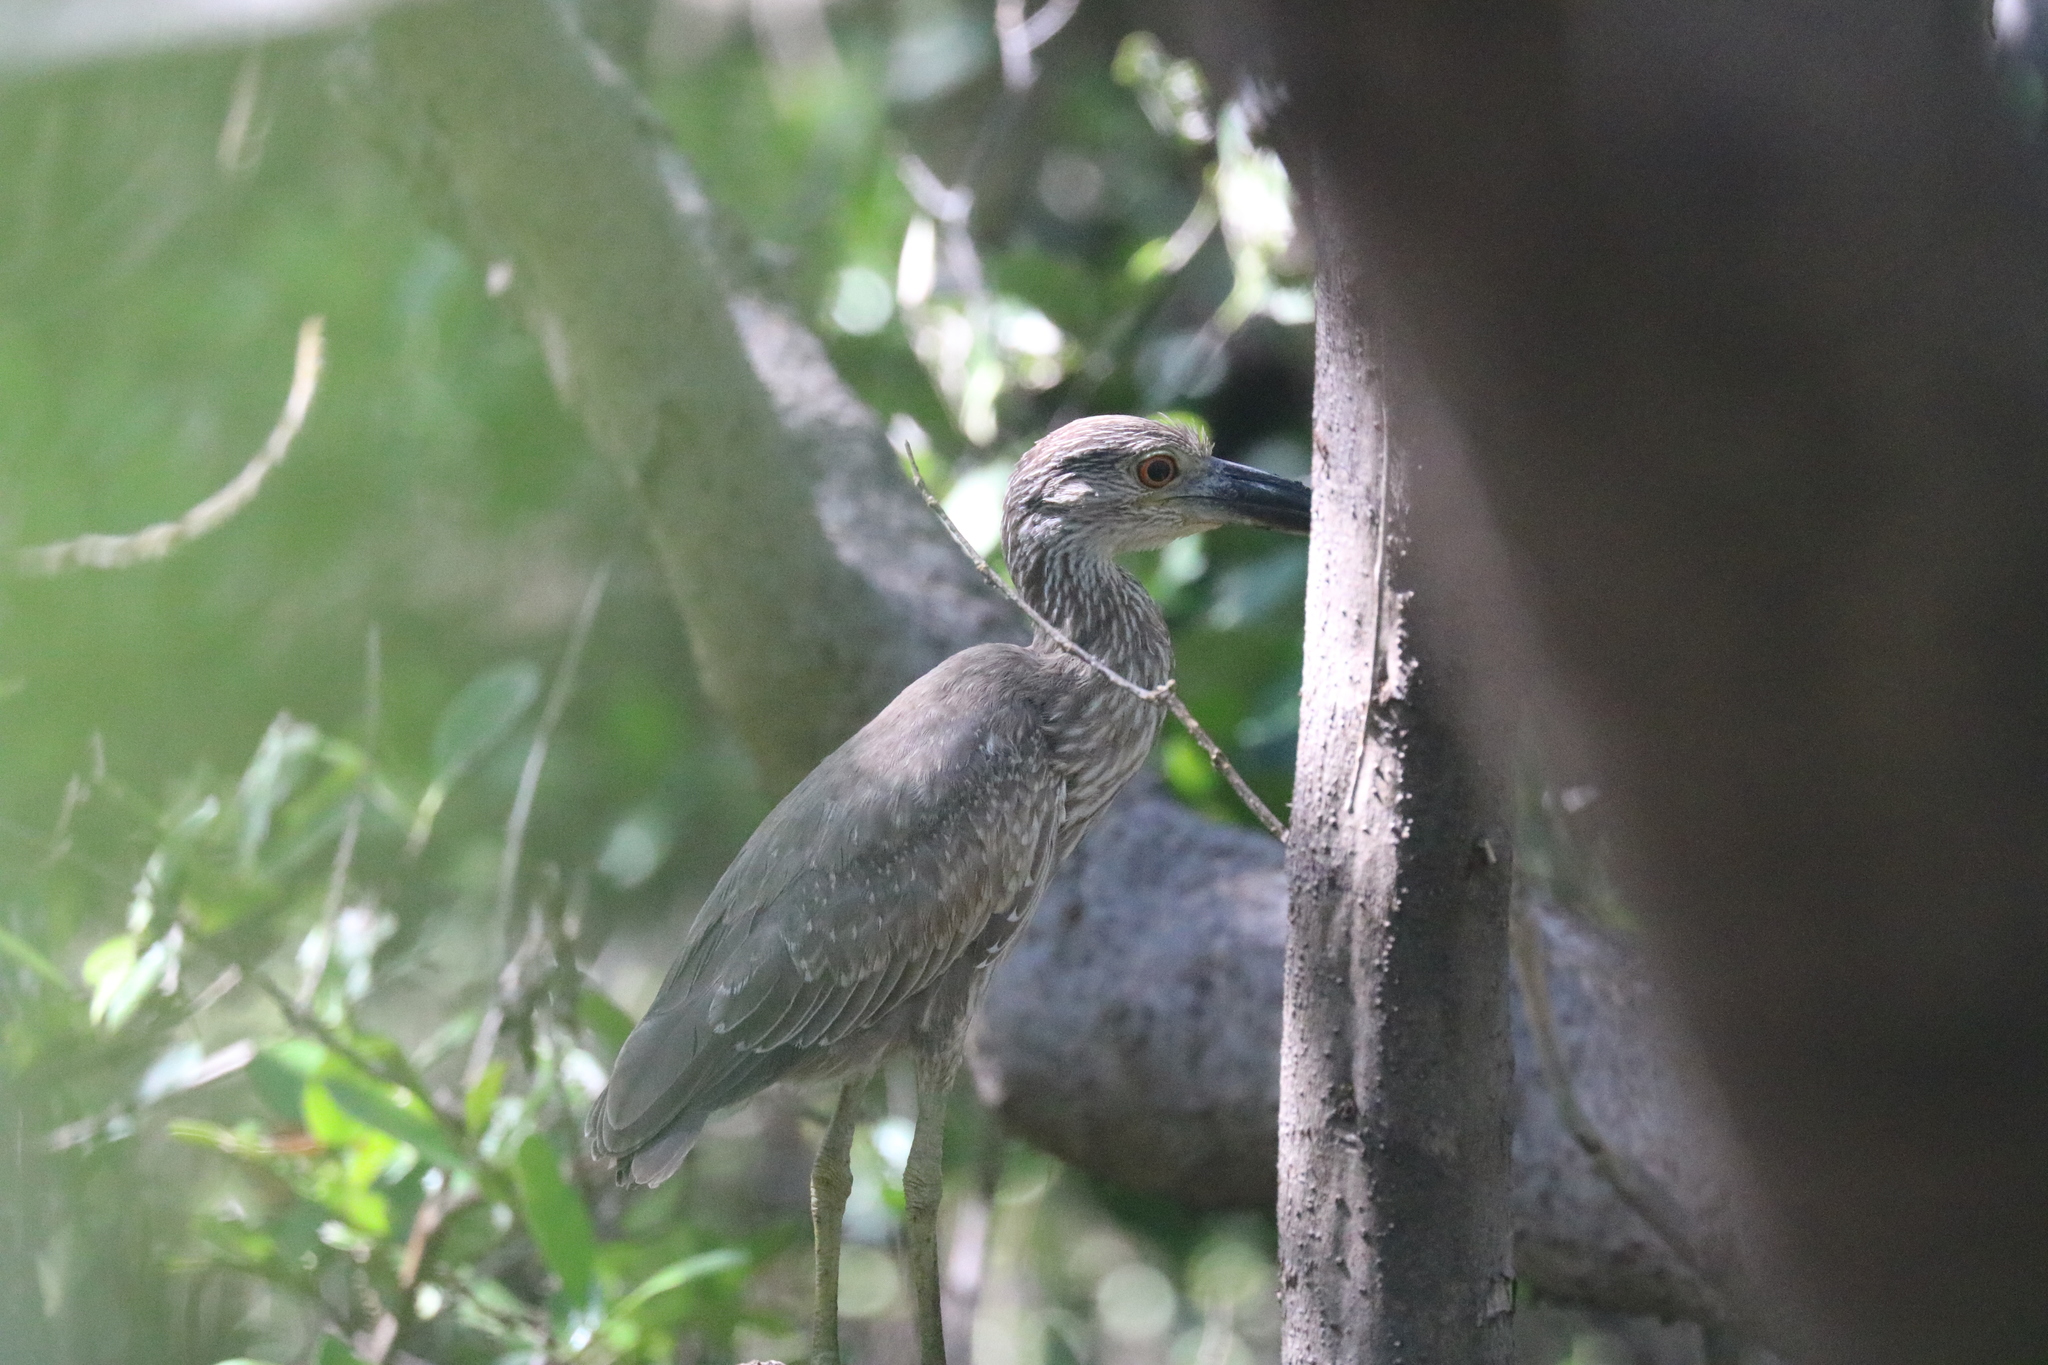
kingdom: Animalia
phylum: Chordata
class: Aves
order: Pelecaniformes
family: Ardeidae
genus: Nyctanassa
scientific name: Nyctanassa violacea
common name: Yellow-crowned night heron
